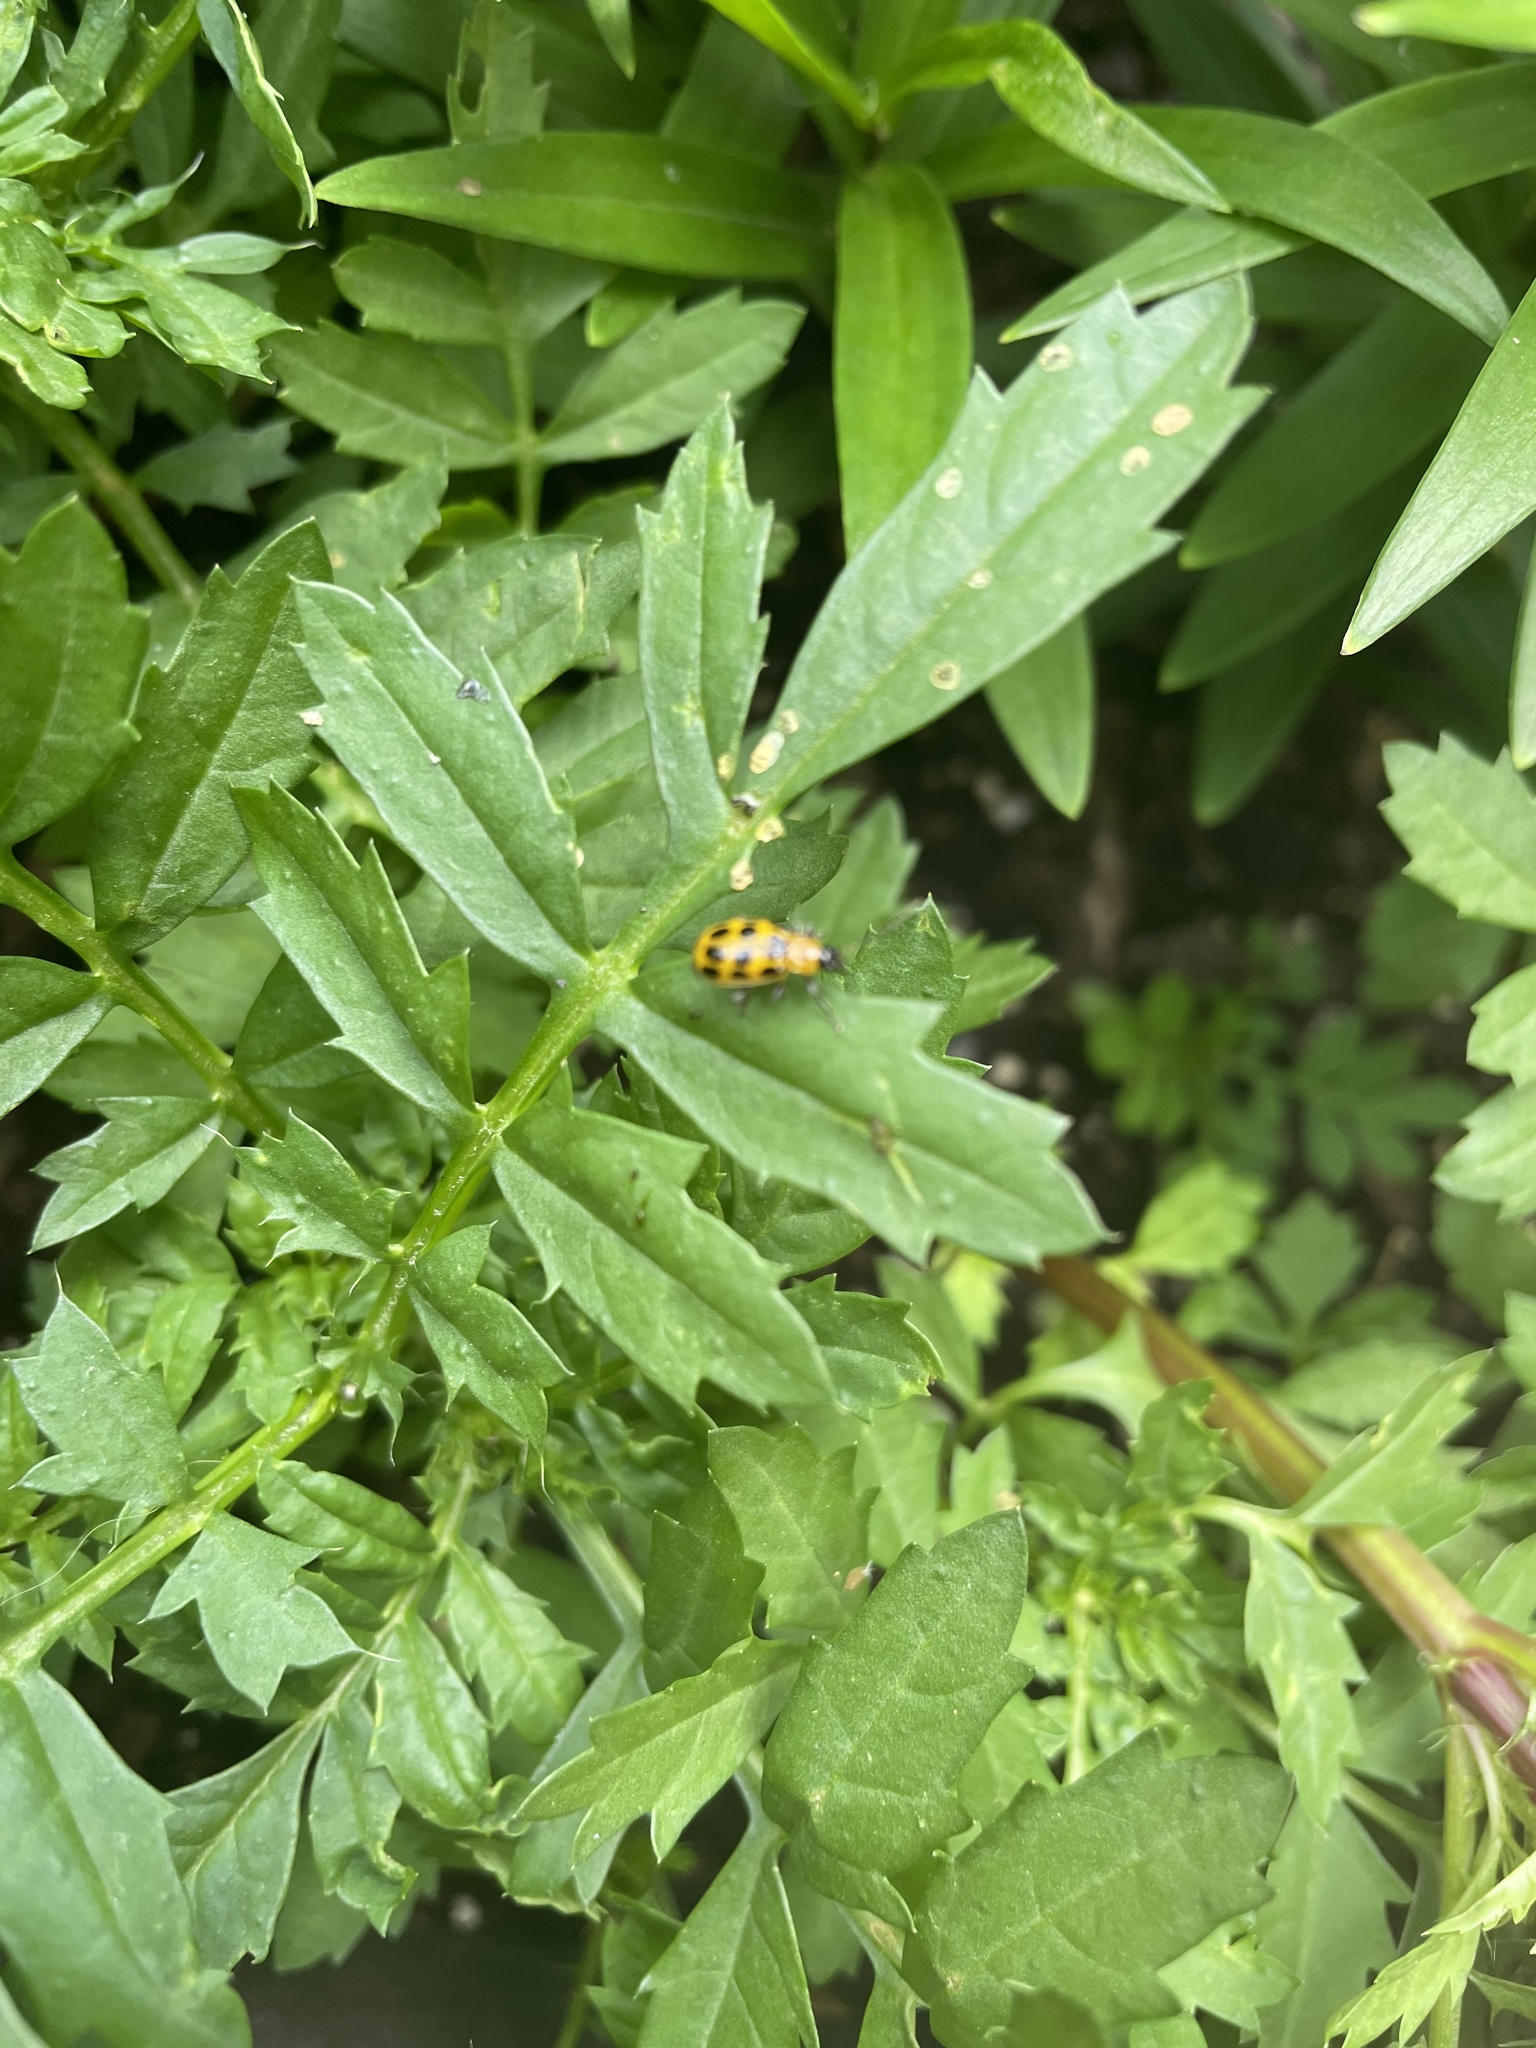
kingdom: Animalia
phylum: Arthropoda
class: Insecta
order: Coleoptera
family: Chrysomelidae
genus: Diabrotica
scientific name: Diabrotica undecimpunctata
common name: Spotted cucumber beetle
